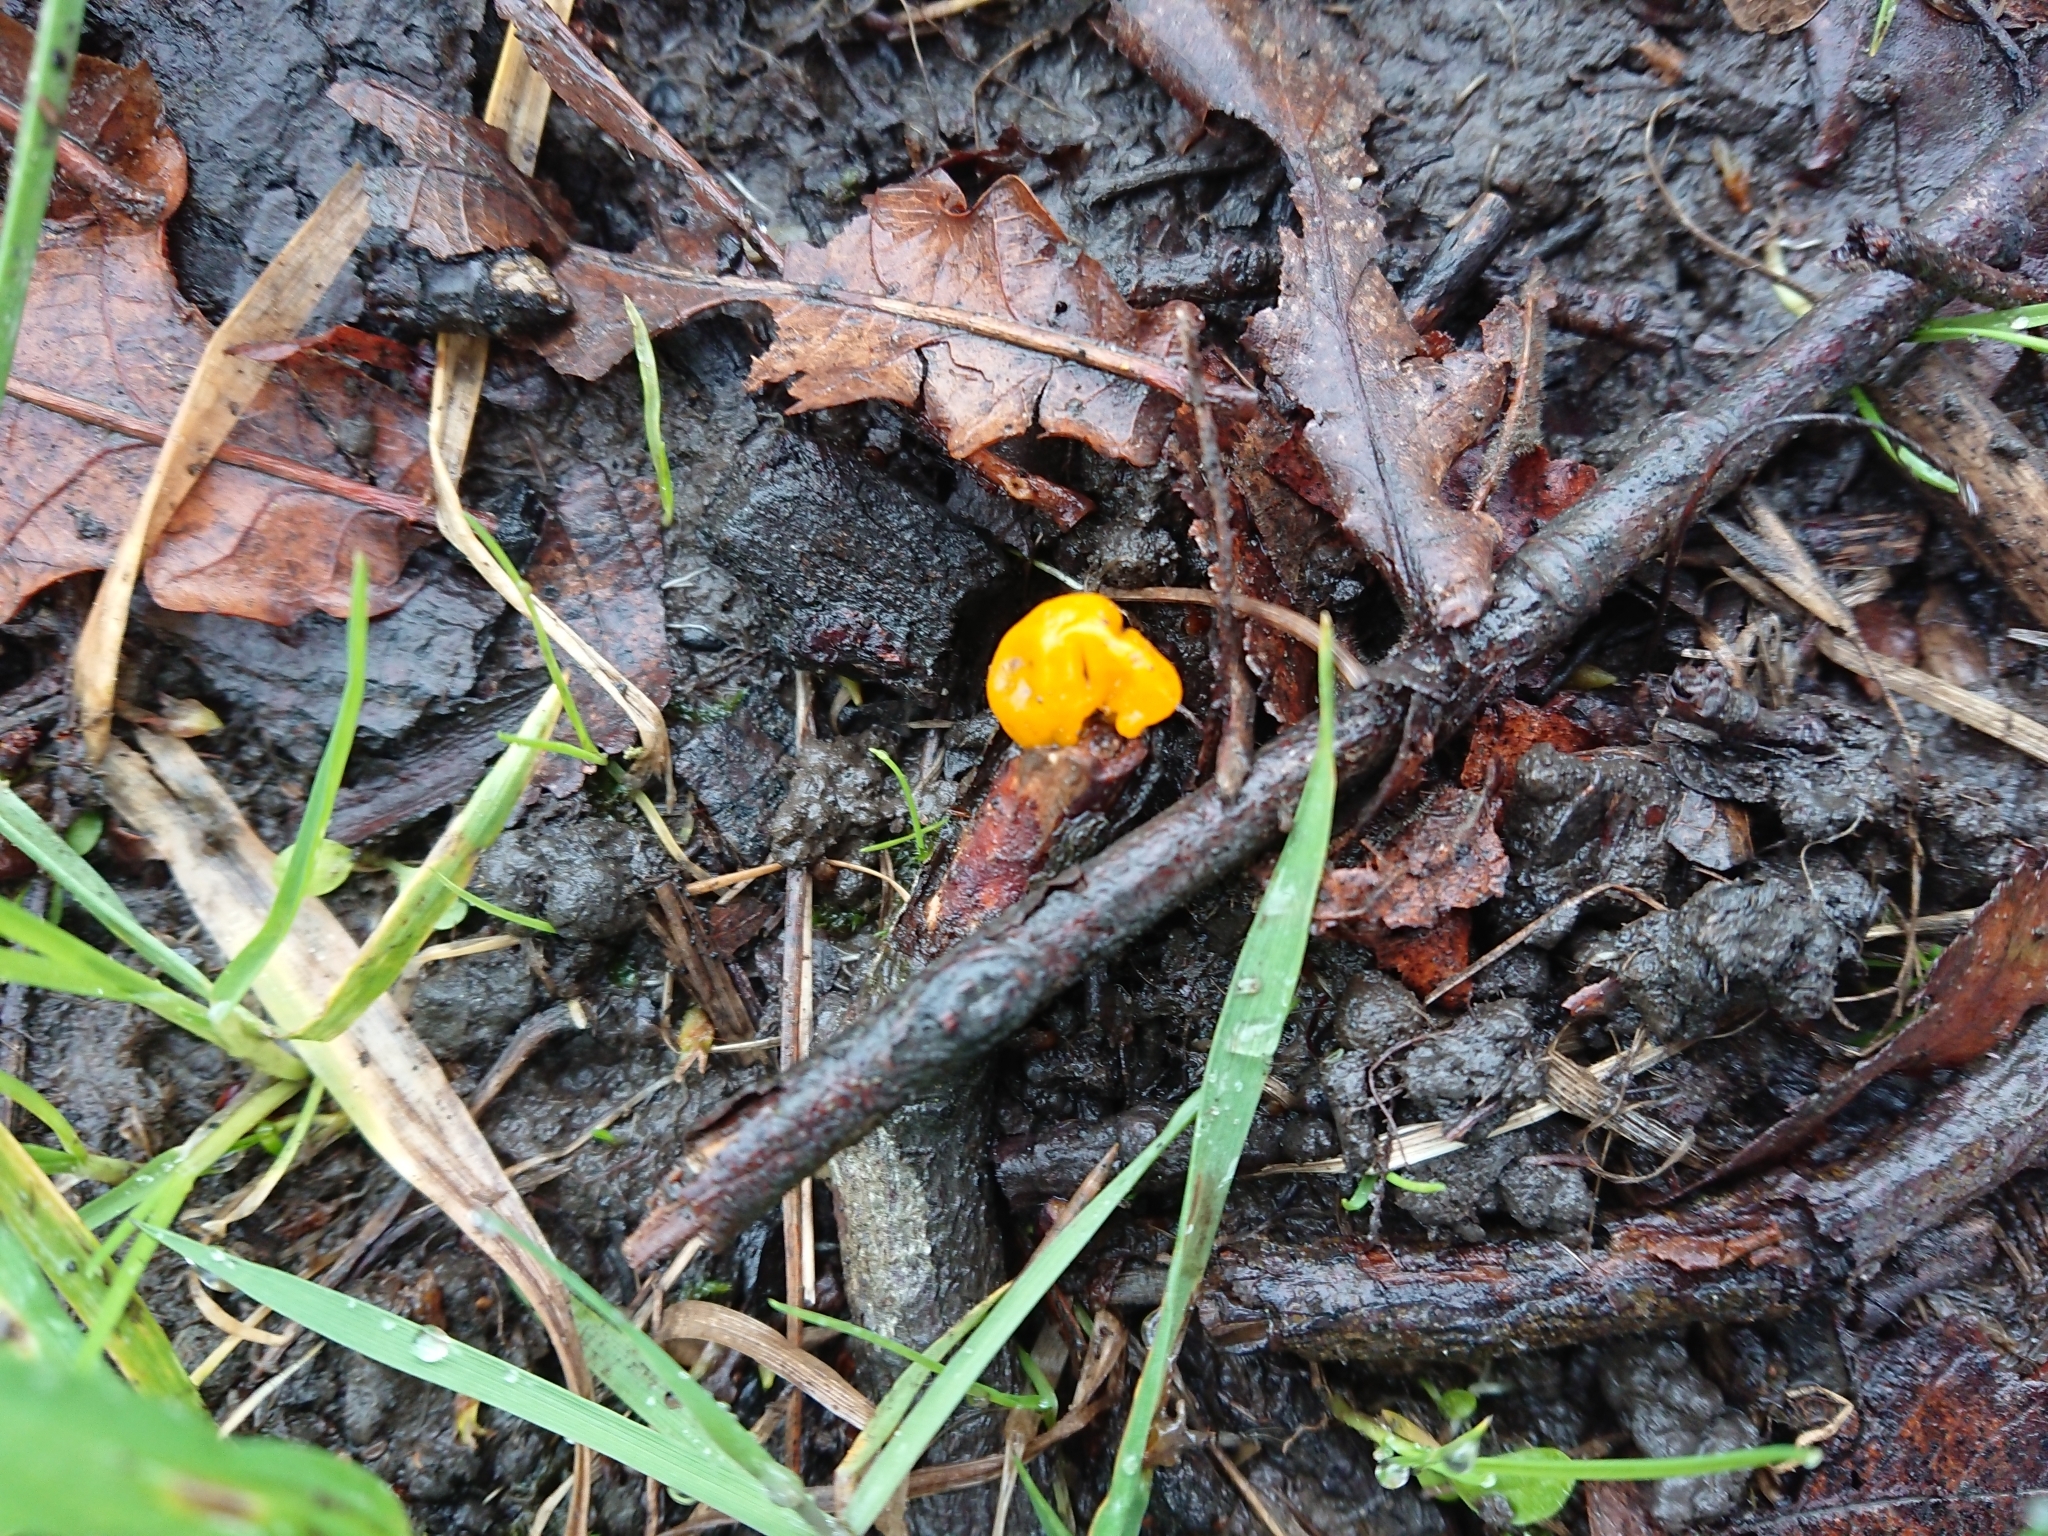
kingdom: Fungi
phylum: Basidiomycota
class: Tremellomycetes
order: Tremellales
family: Tremellaceae
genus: Tremella
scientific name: Tremella mesenterica
